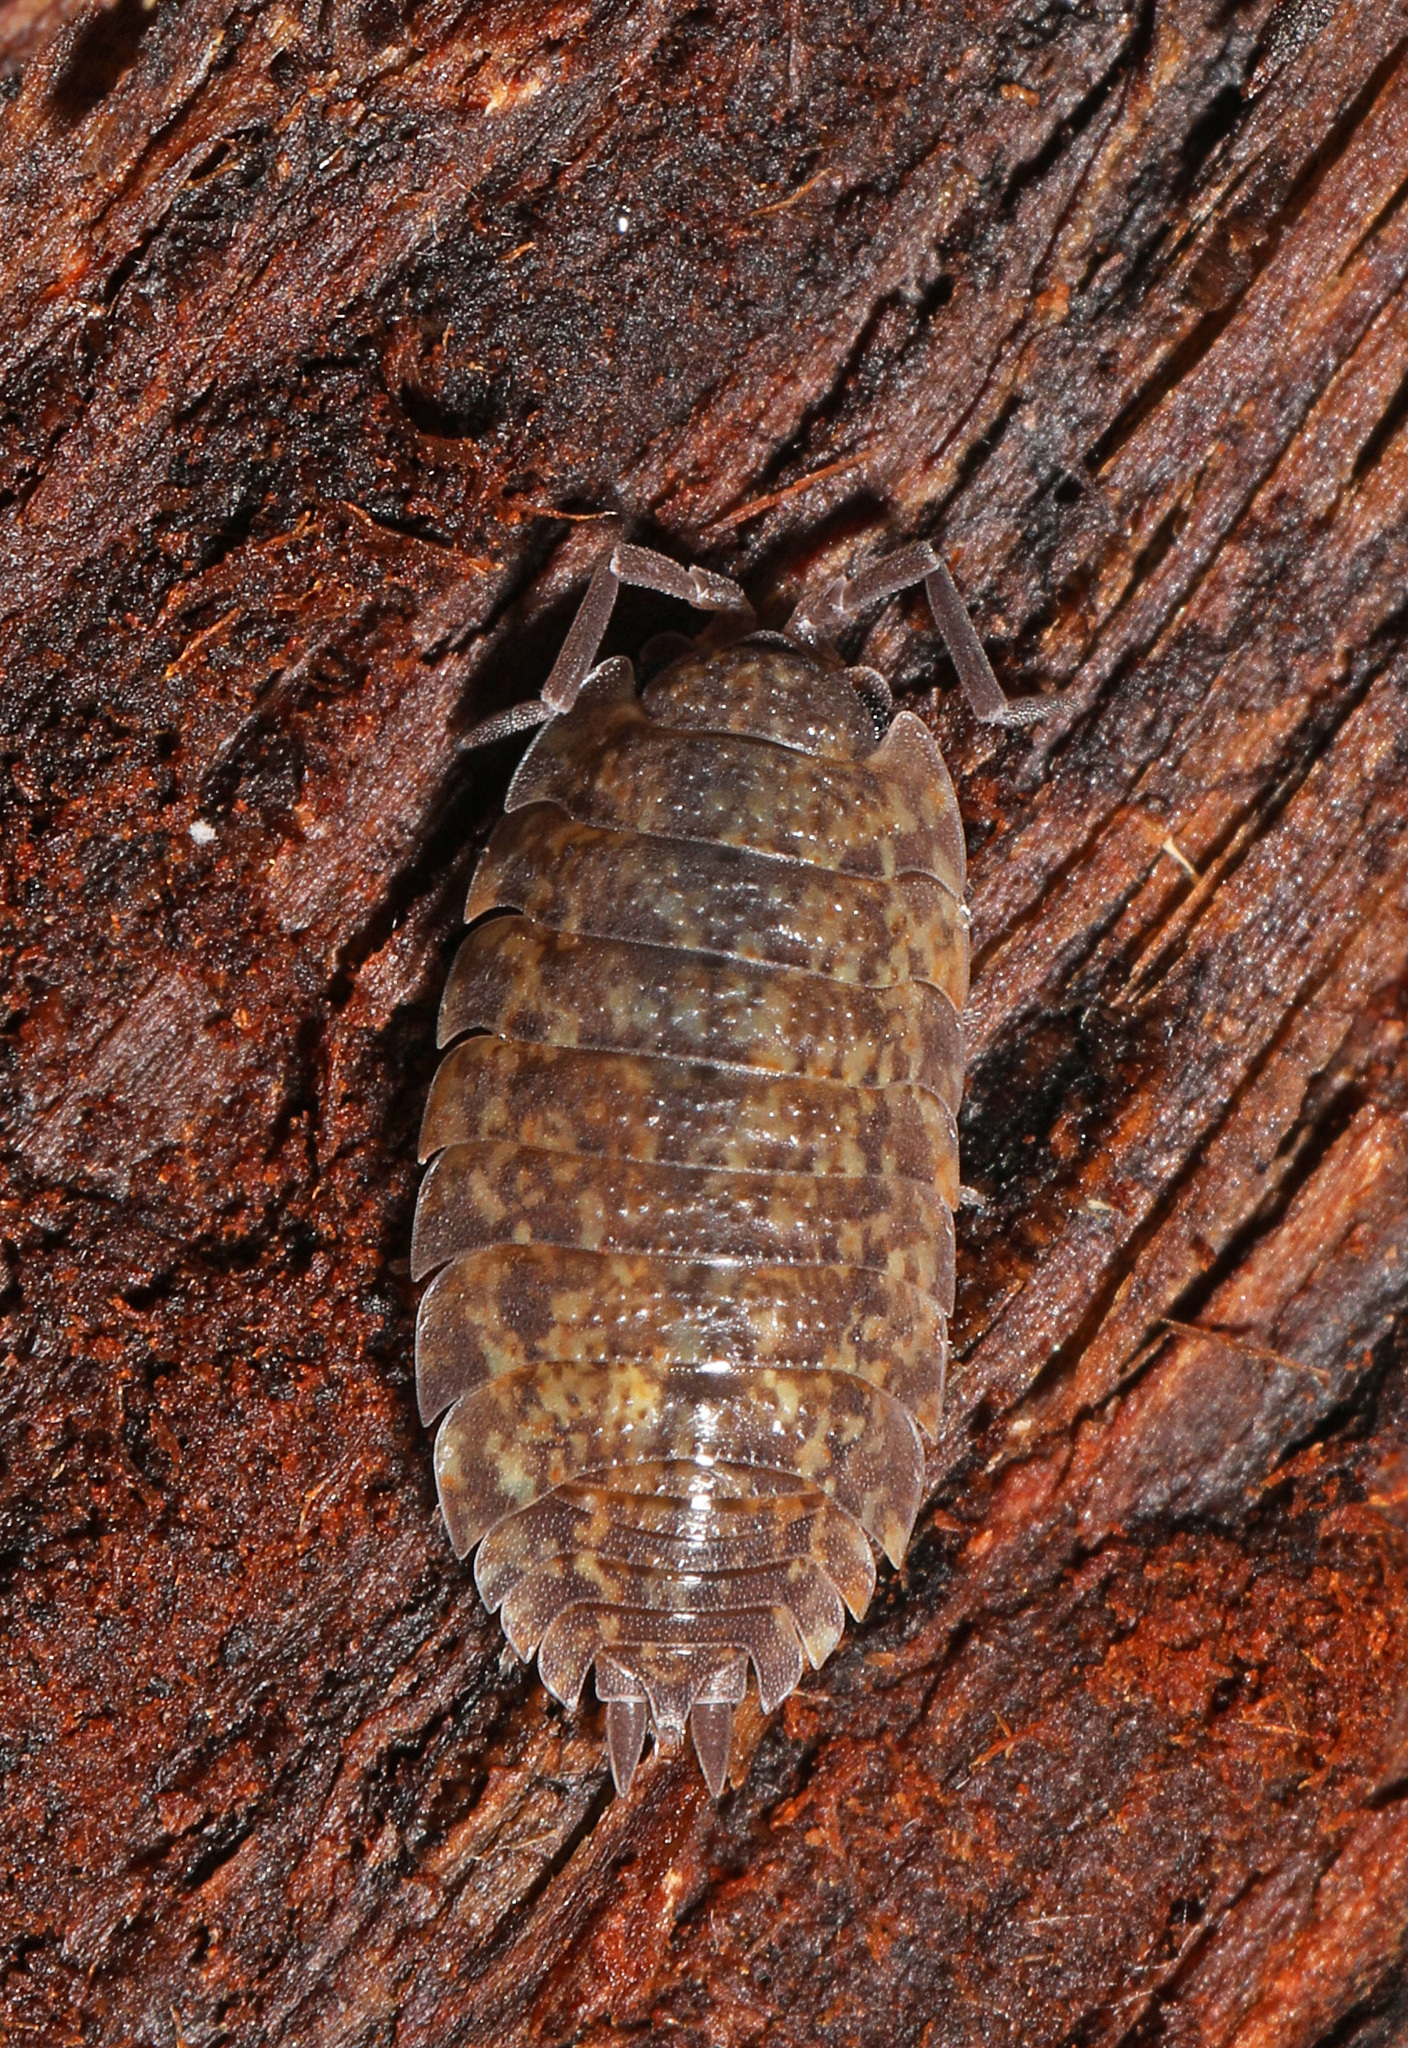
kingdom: Animalia
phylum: Arthropoda
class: Malacostraca
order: Isopoda
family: Trachelipodidae
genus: Trachelipus
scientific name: Trachelipus rathkii
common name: Isopod
